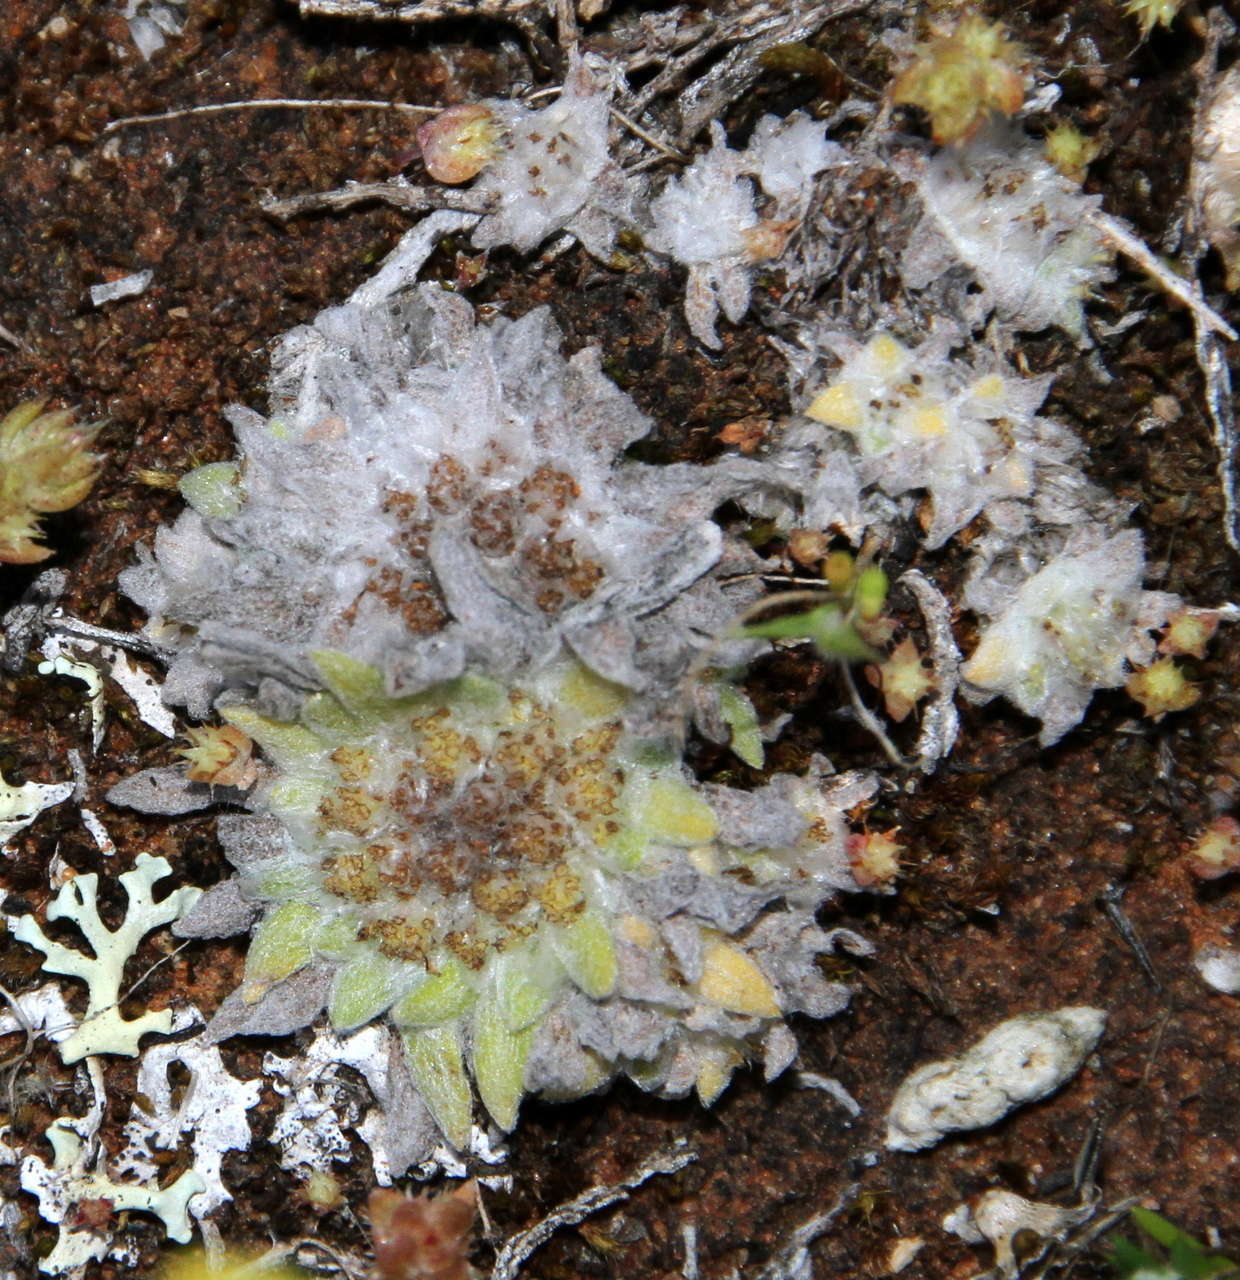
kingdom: Plantae
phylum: Tracheophyta
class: Magnoliopsida
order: Asterales
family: Asteraceae
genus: Chthonocephalus
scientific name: Chthonocephalus pseudevax
